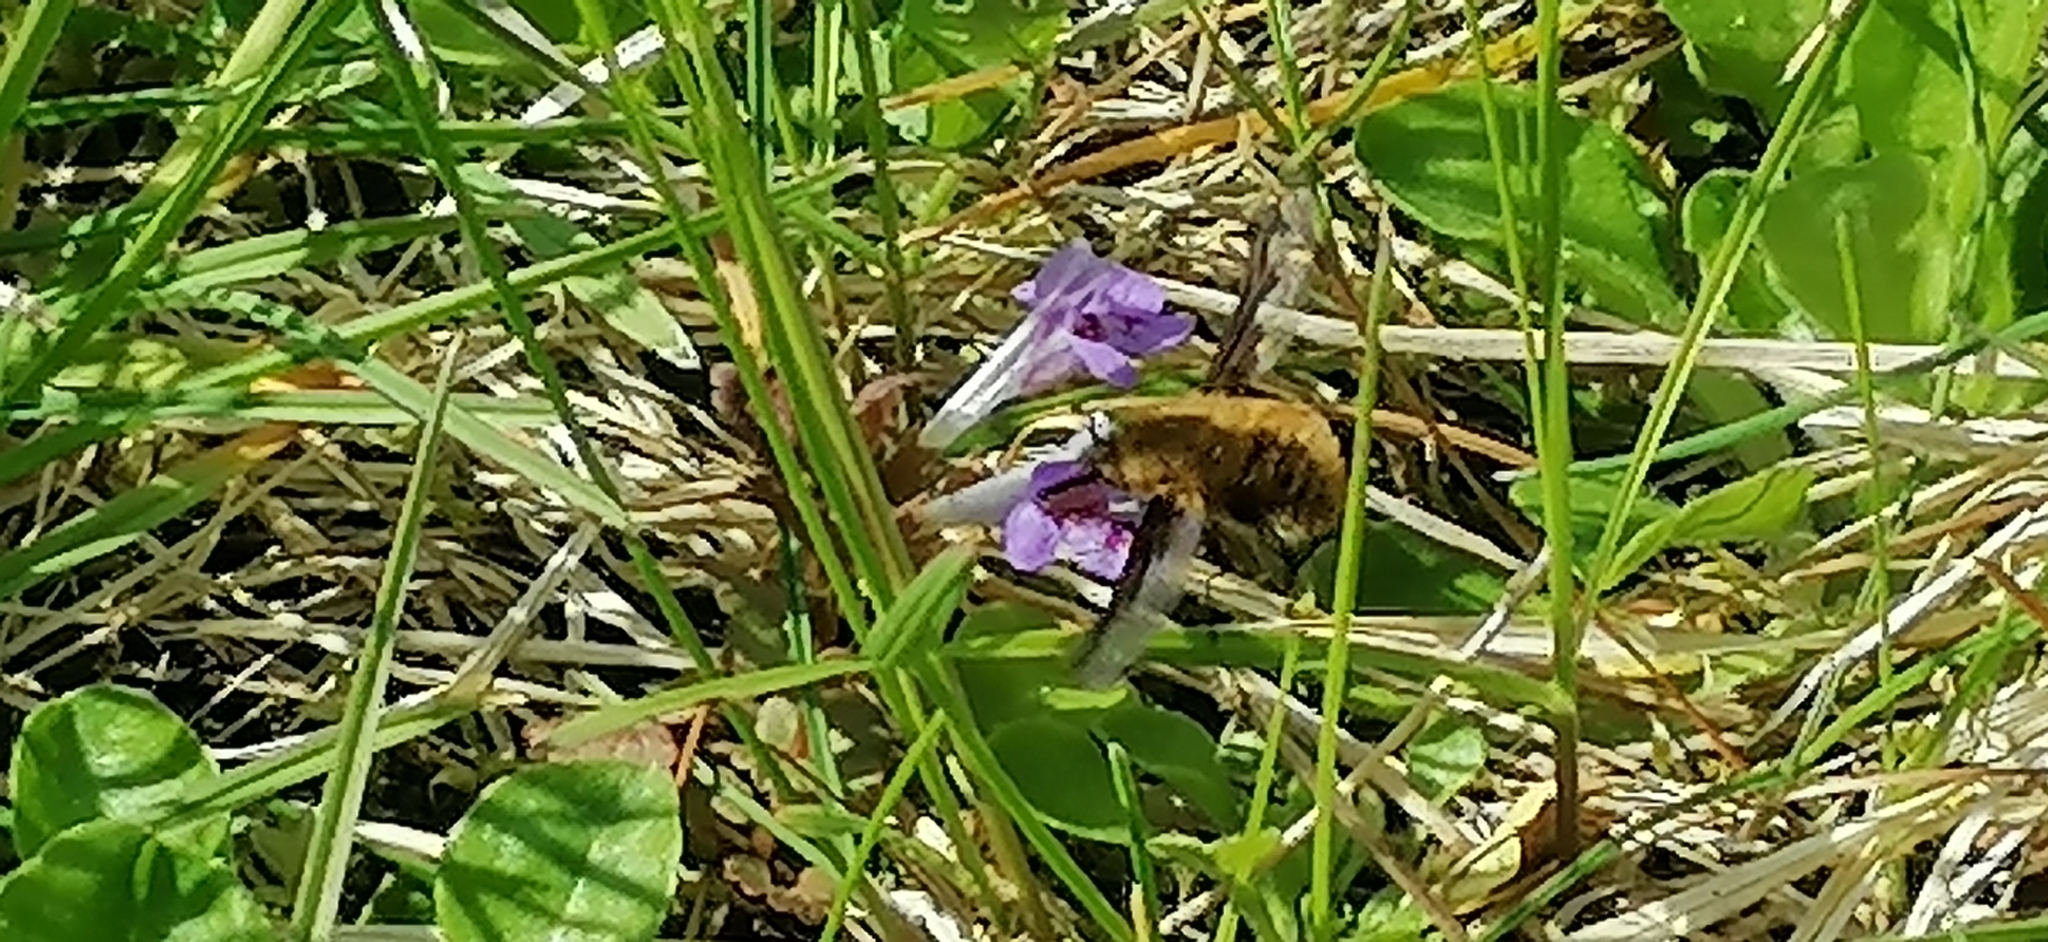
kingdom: Animalia
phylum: Arthropoda
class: Insecta
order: Diptera
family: Bombyliidae
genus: Bombylius
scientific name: Bombylius major
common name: Bee fly
